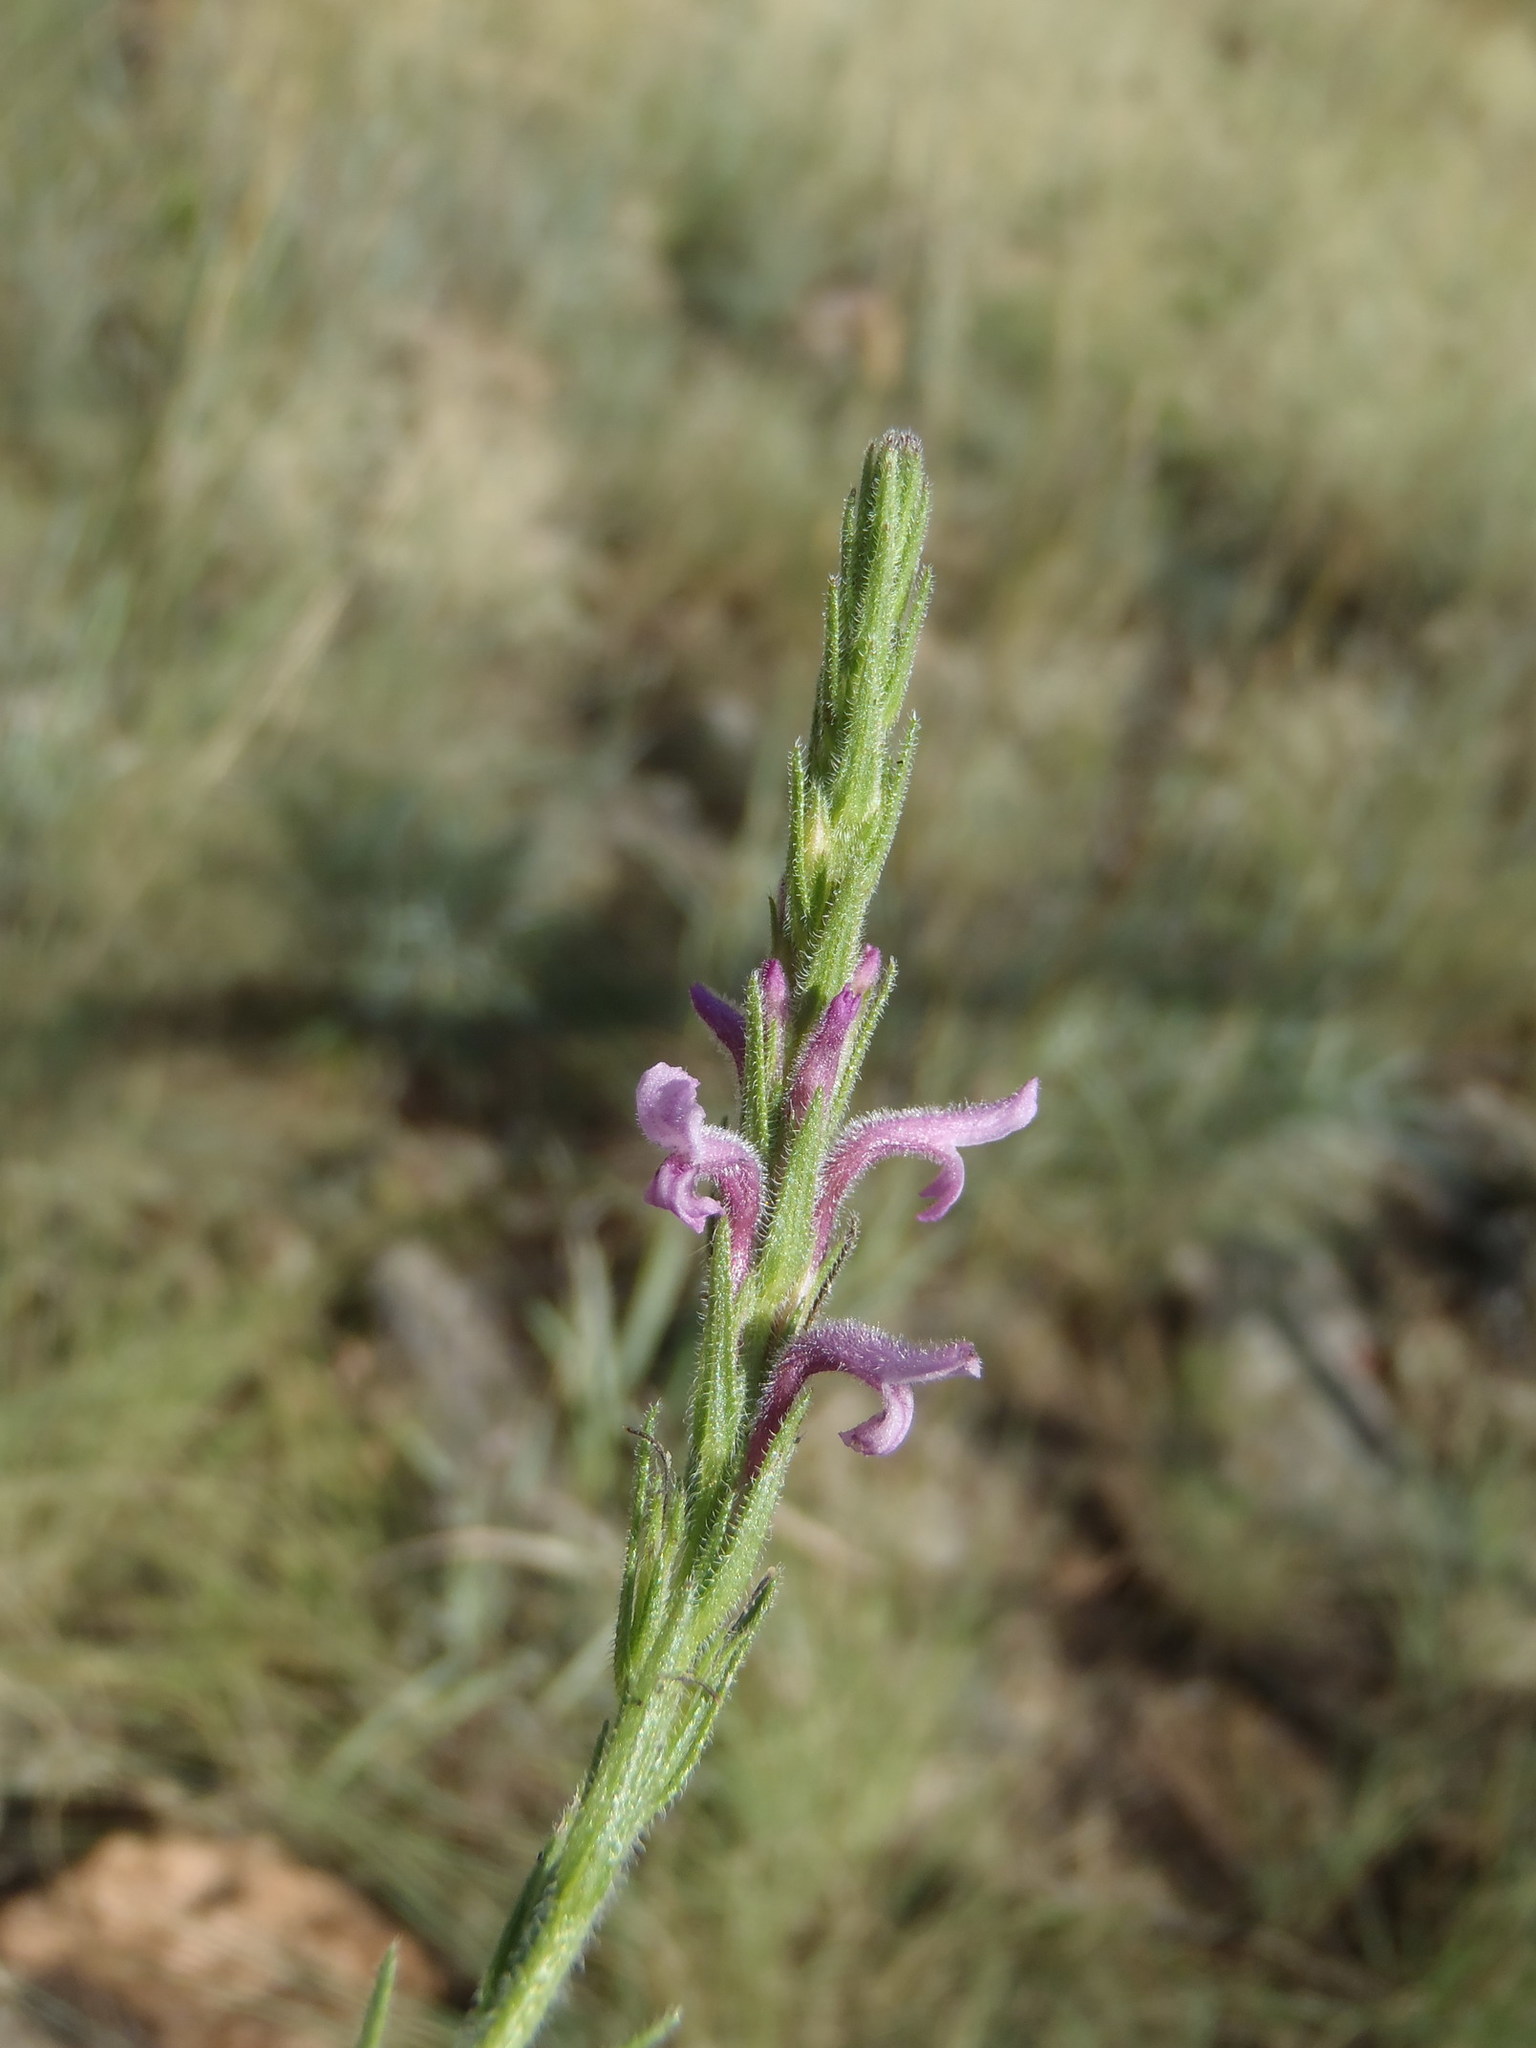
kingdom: Plantae
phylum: Tracheophyta
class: Magnoliopsida
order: Lamiales
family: Orobanchaceae
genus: Striga
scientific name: Striga bilabiata
